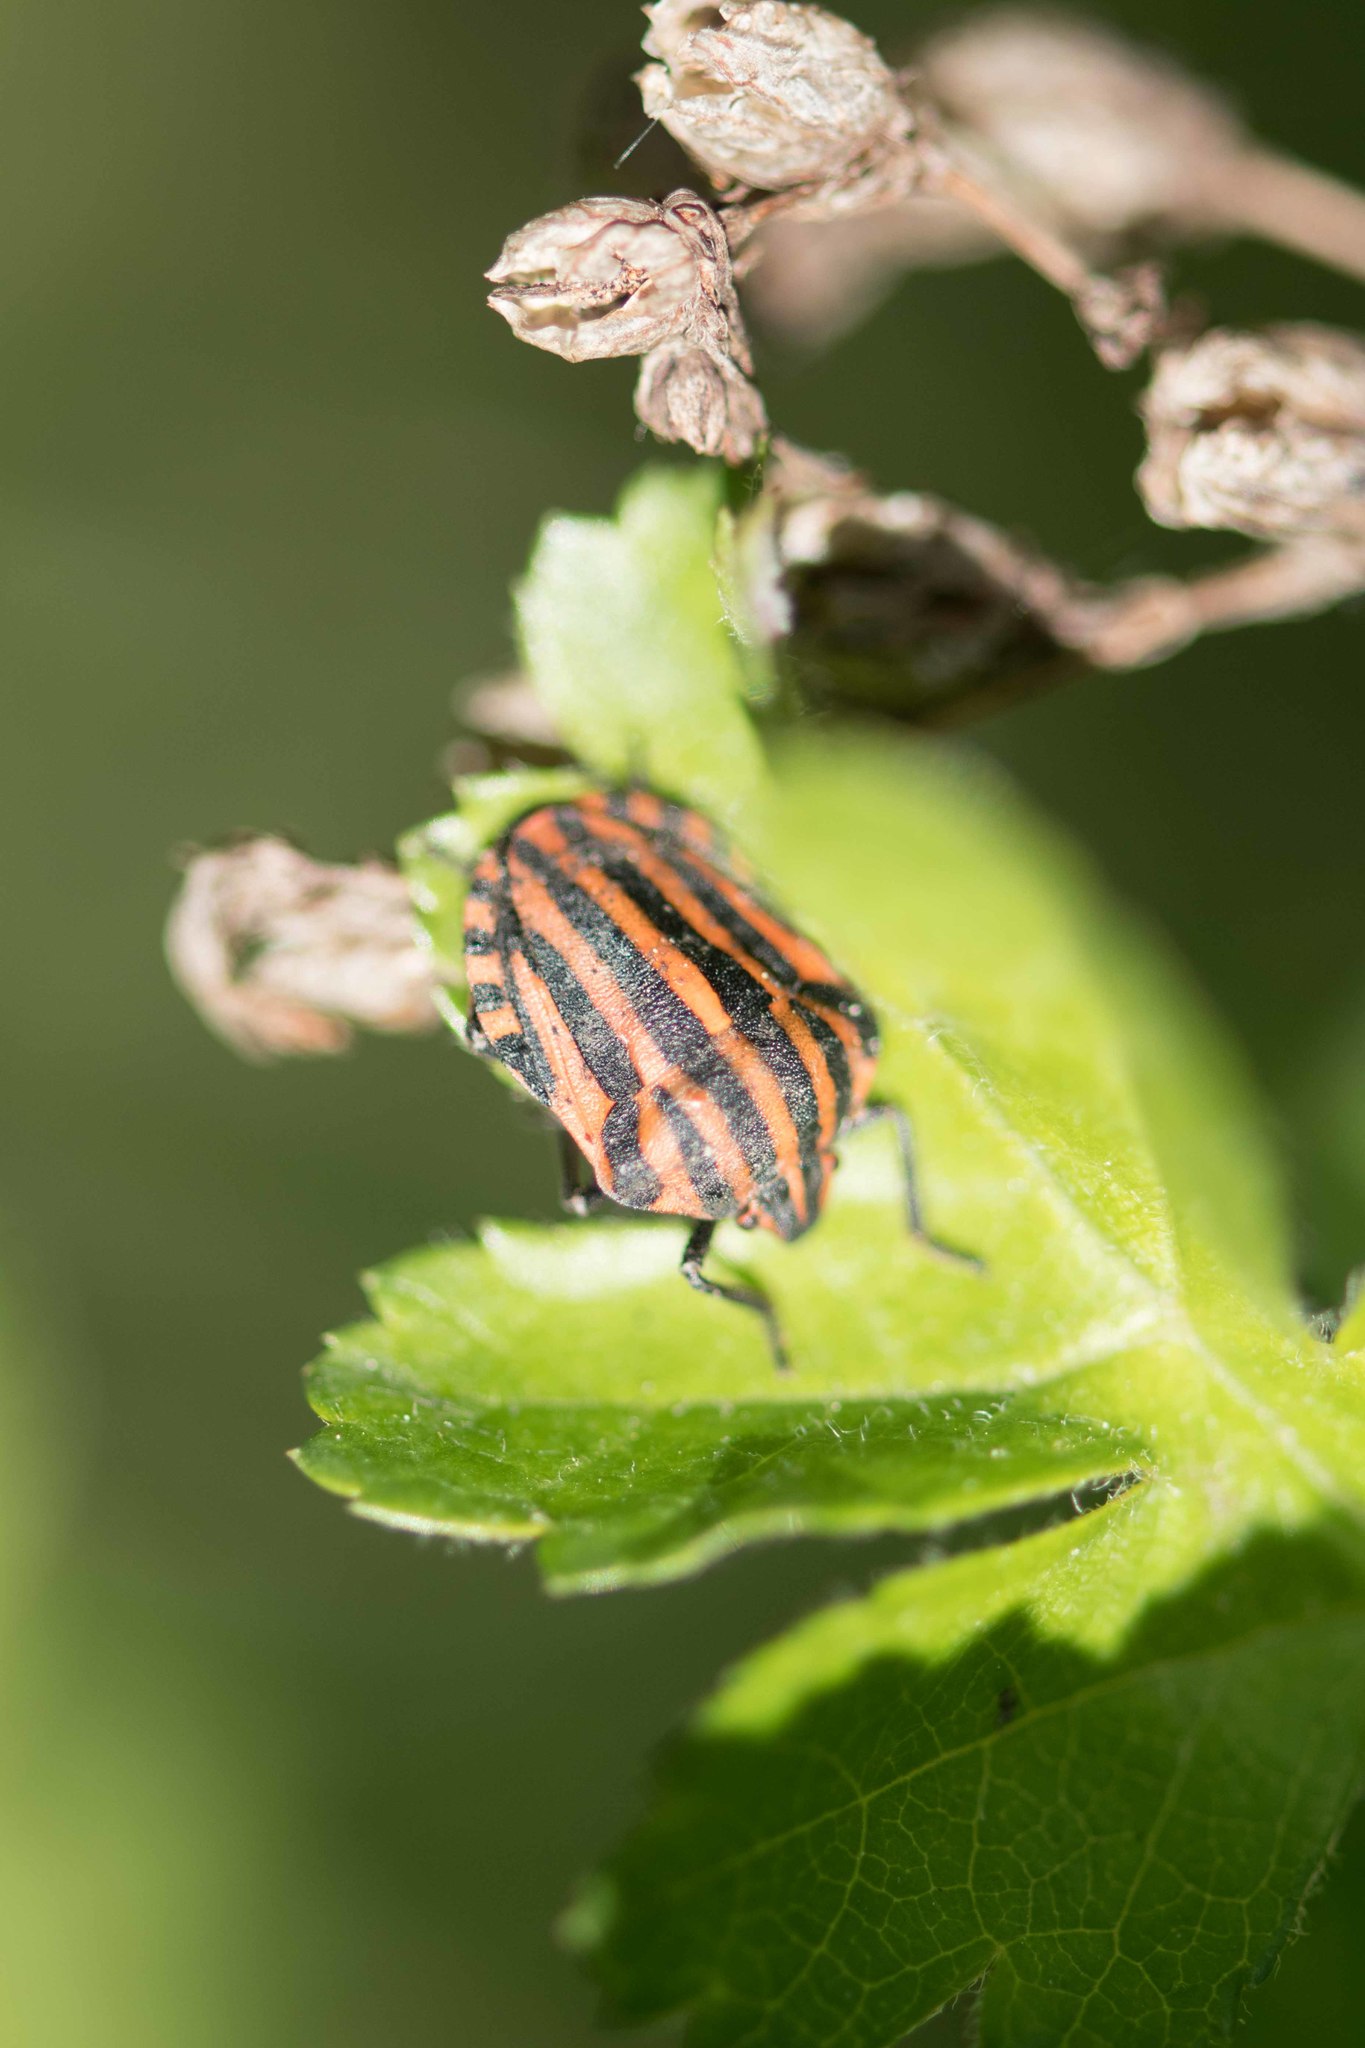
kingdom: Animalia
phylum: Arthropoda
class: Insecta
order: Hemiptera
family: Pentatomidae
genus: Graphosoma
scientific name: Graphosoma italicum
